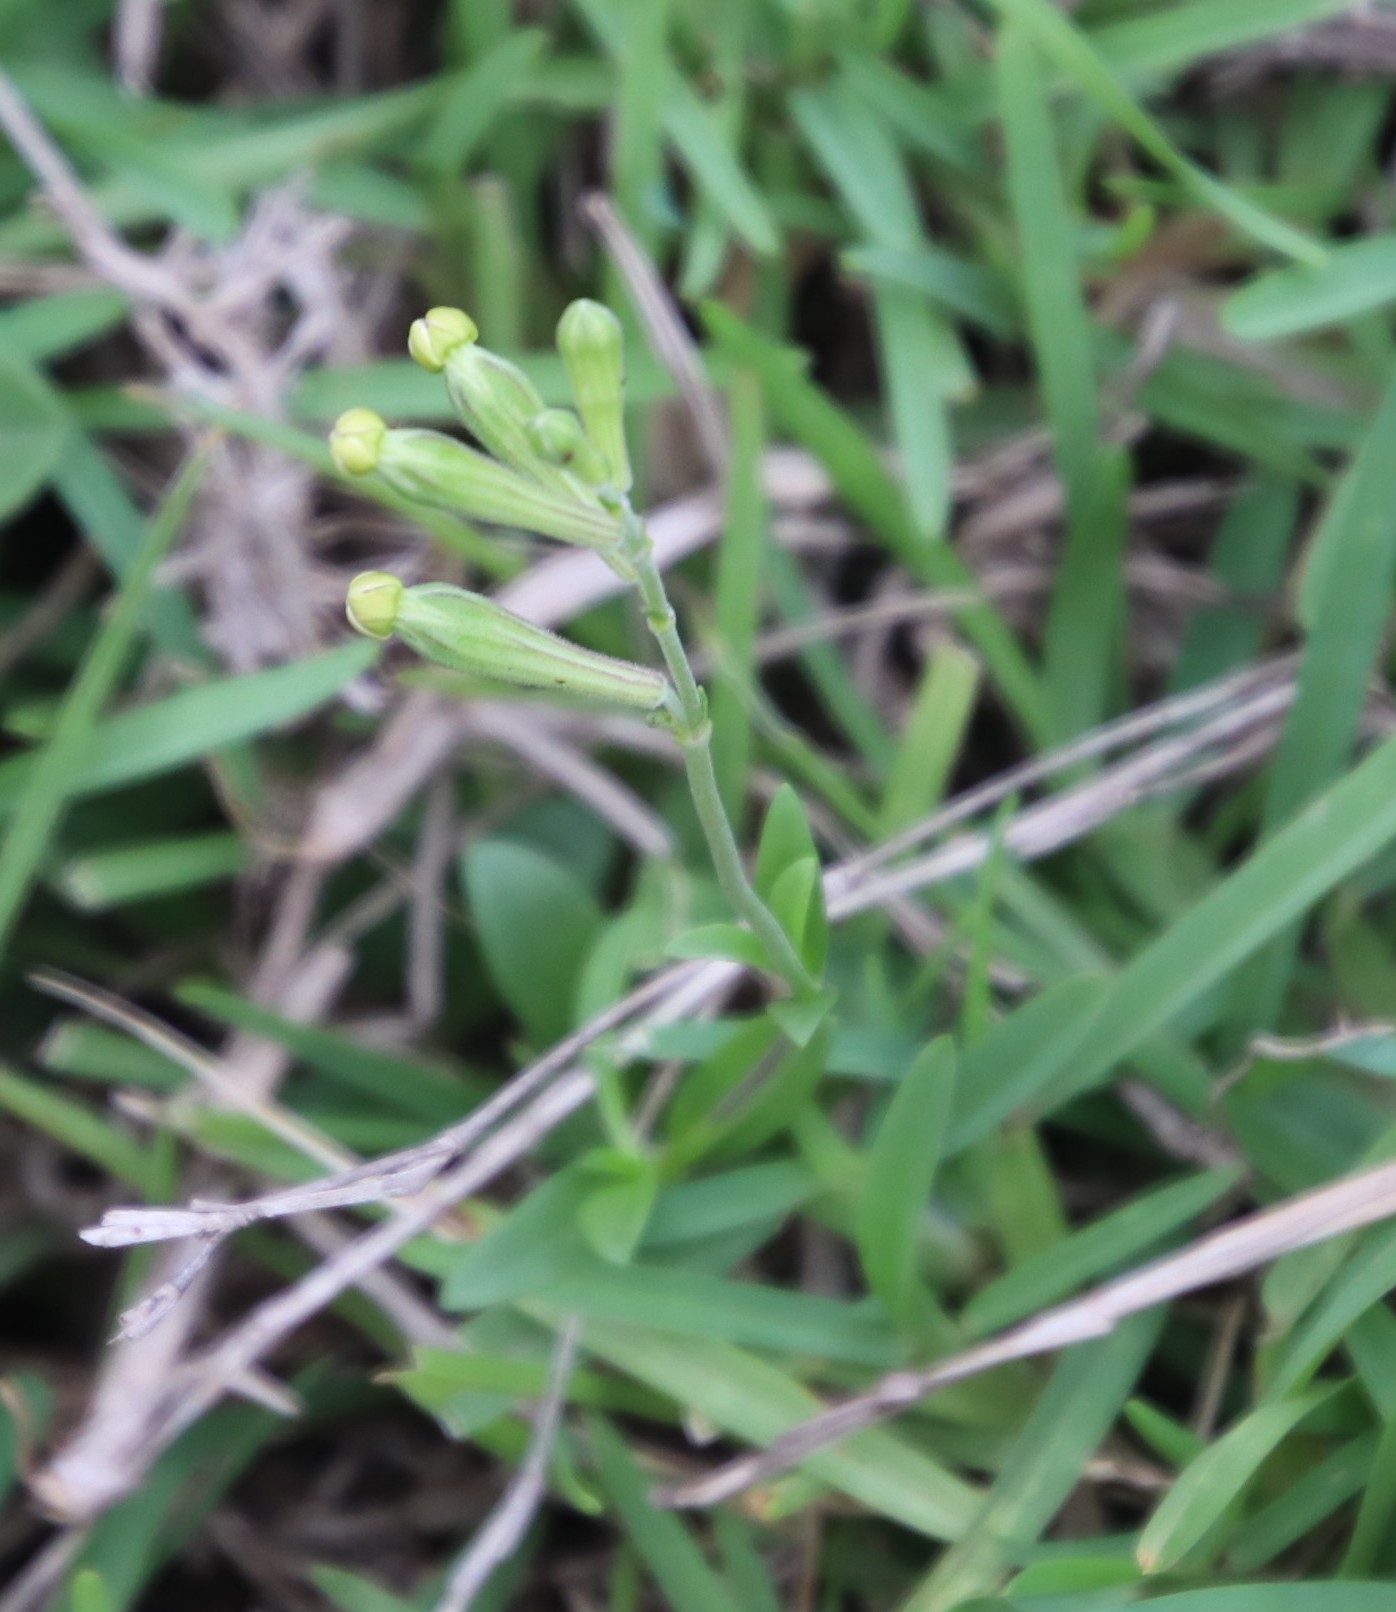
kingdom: Plantae
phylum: Tracheophyta
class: Magnoliopsida
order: Caryophyllales
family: Caryophyllaceae
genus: Silene
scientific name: Silene crassifolia
